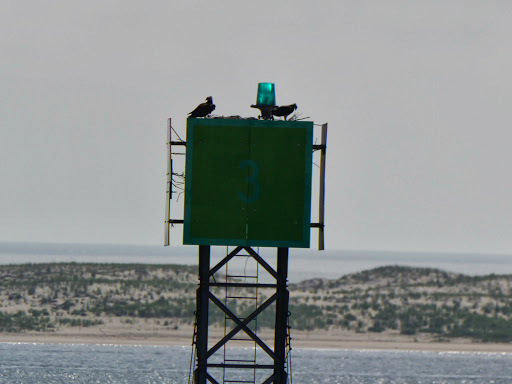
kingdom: Animalia
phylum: Chordata
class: Aves
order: Accipitriformes
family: Pandionidae
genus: Pandion
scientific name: Pandion haliaetus
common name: Osprey
